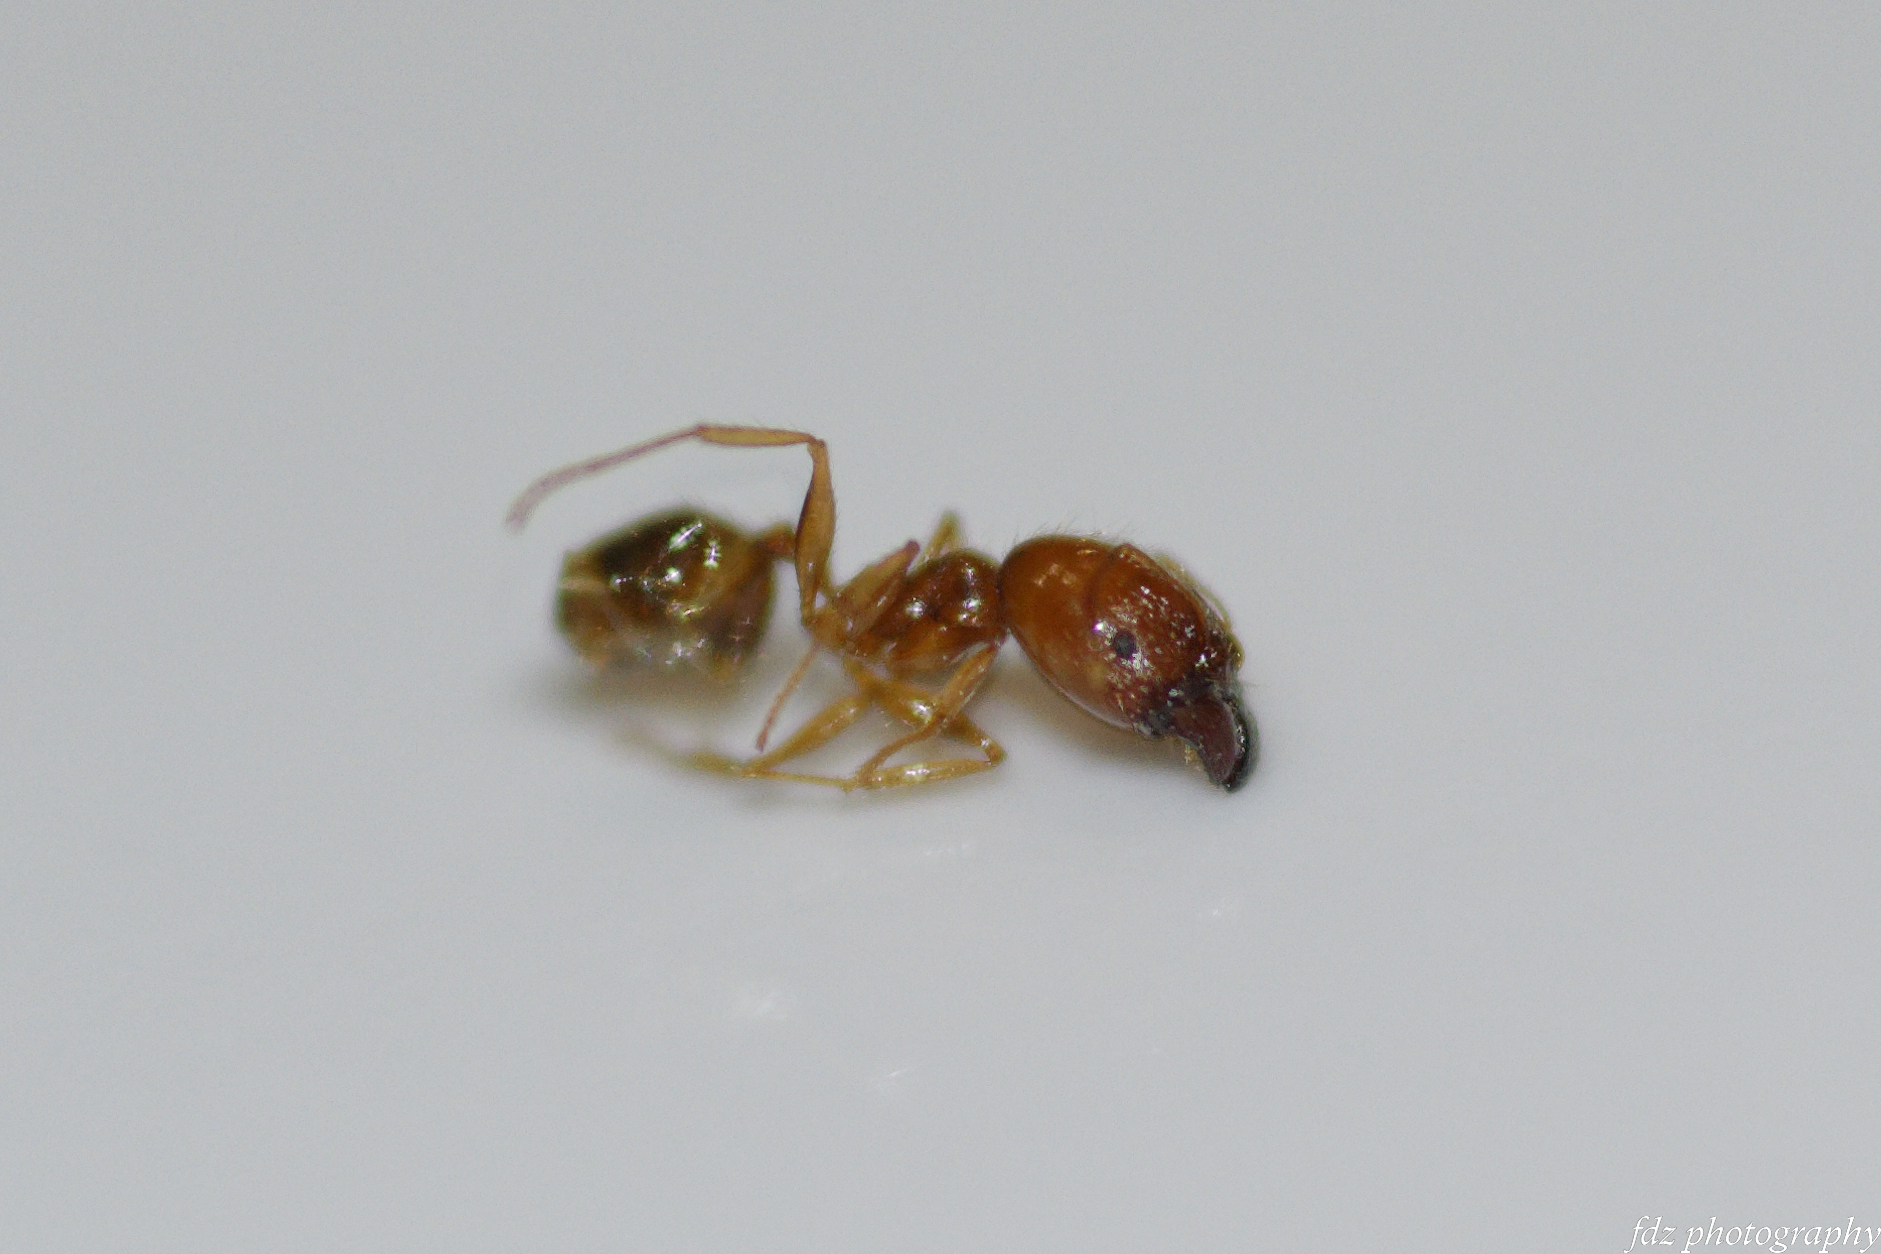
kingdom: Animalia
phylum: Arthropoda
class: Insecta
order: Hymenoptera
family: Formicidae
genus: Pheidole
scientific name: Pheidole pallidula
